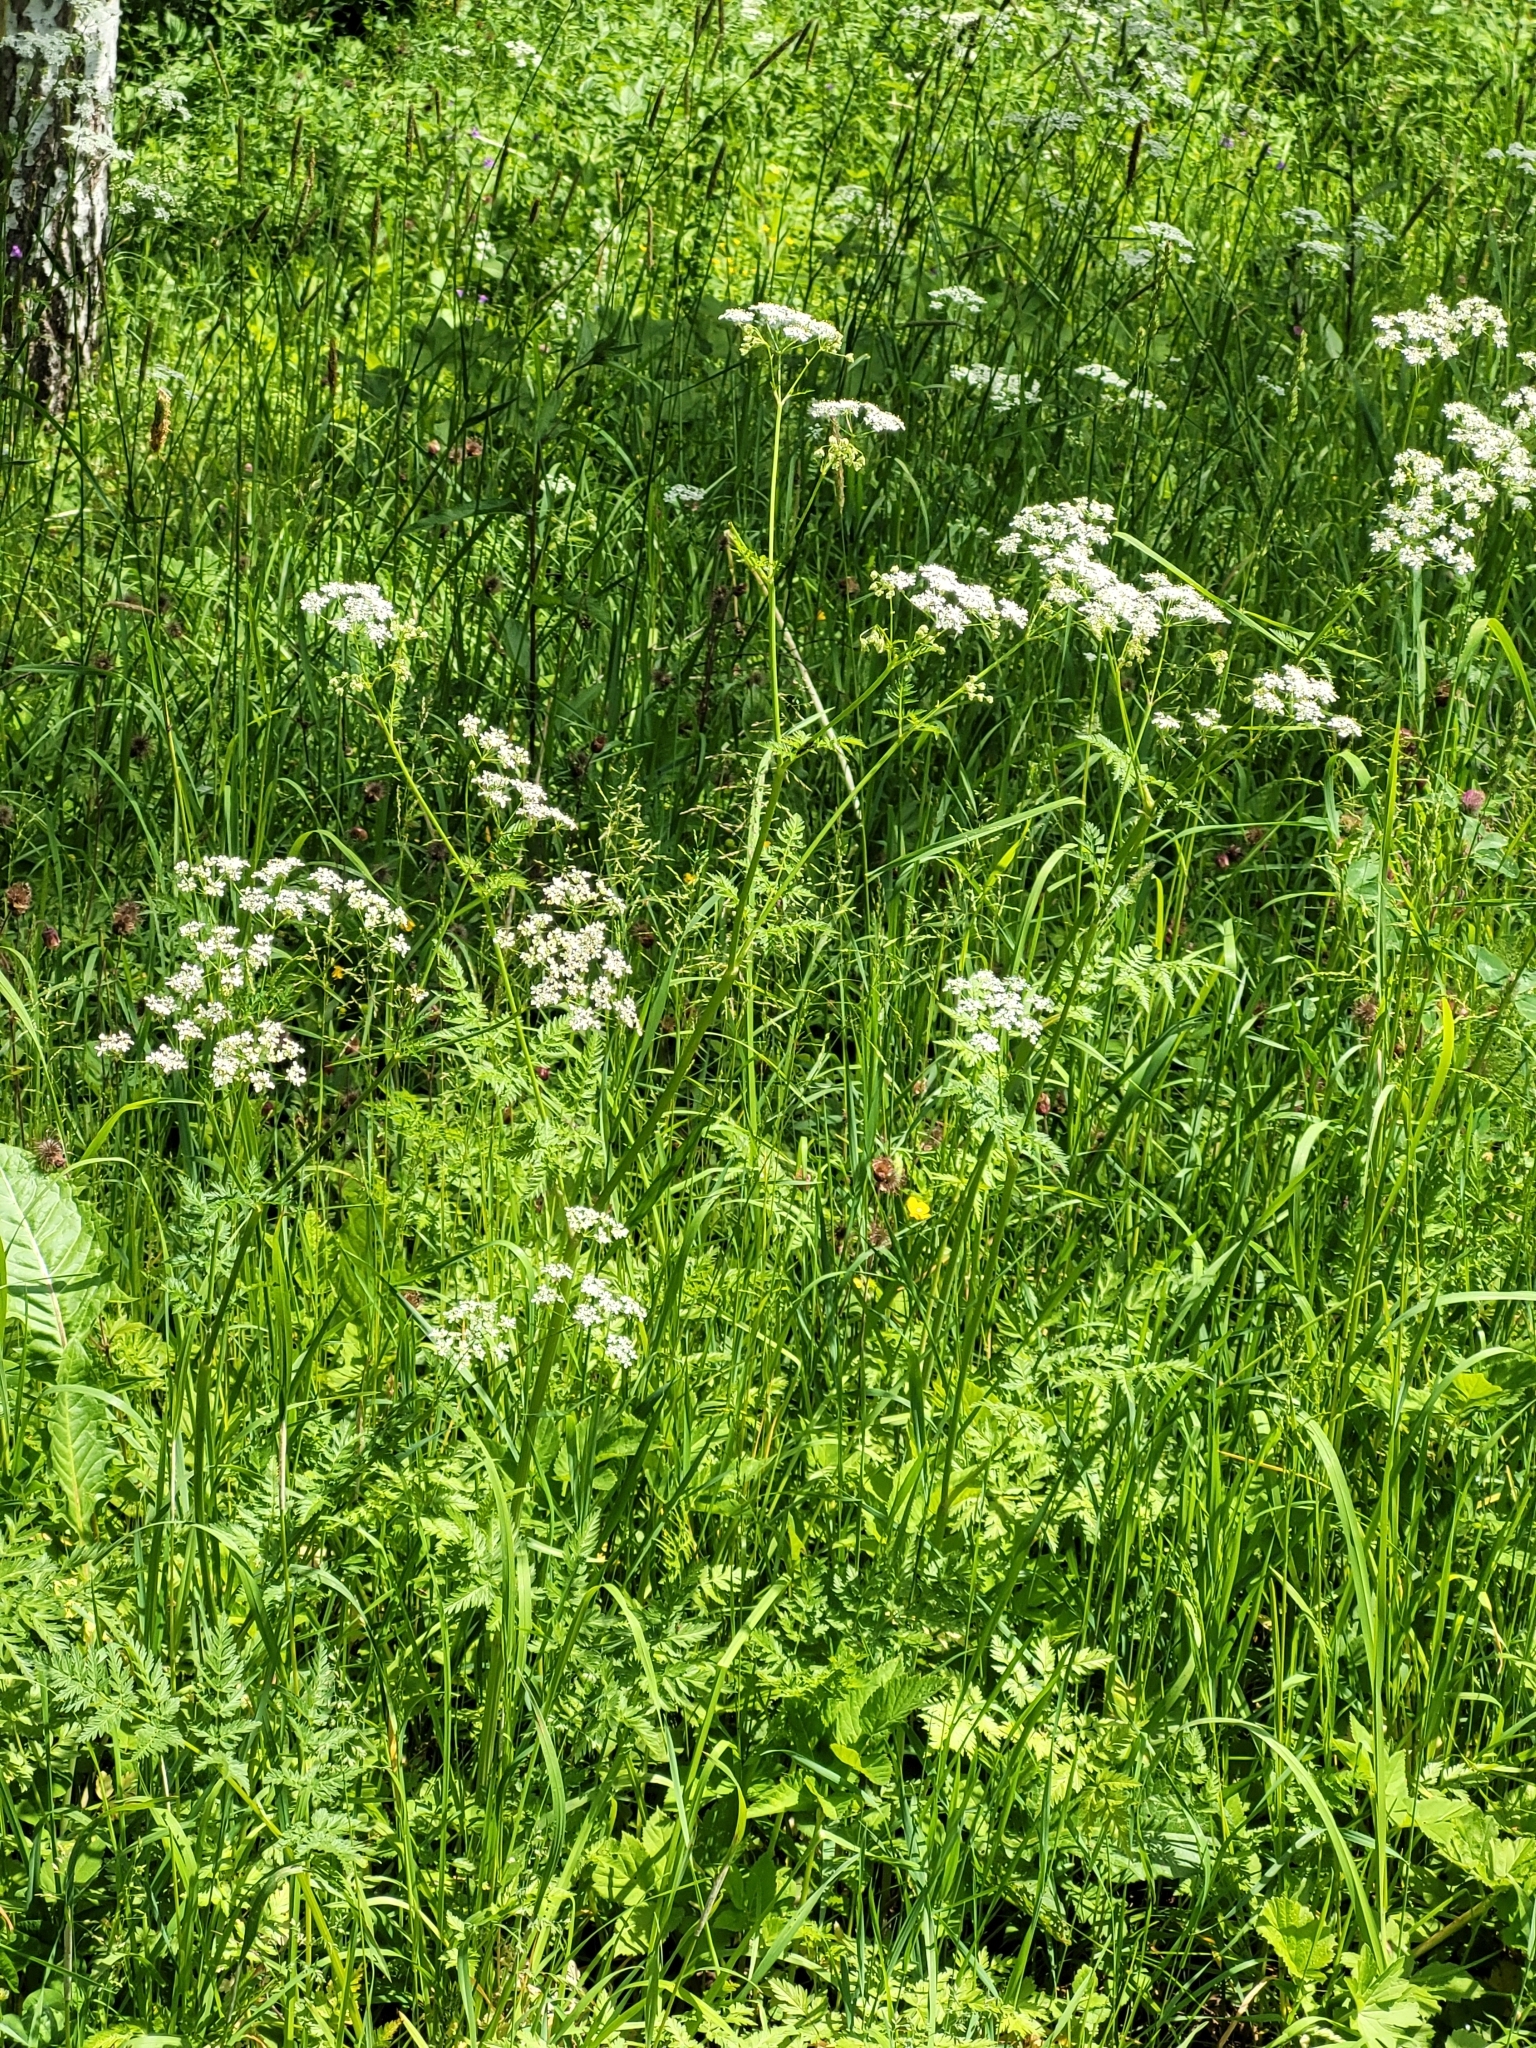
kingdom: Plantae
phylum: Tracheophyta
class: Magnoliopsida
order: Apiales
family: Apiaceae
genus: Anthriscus
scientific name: Anthriscus sylvestris
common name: Cow parsley
